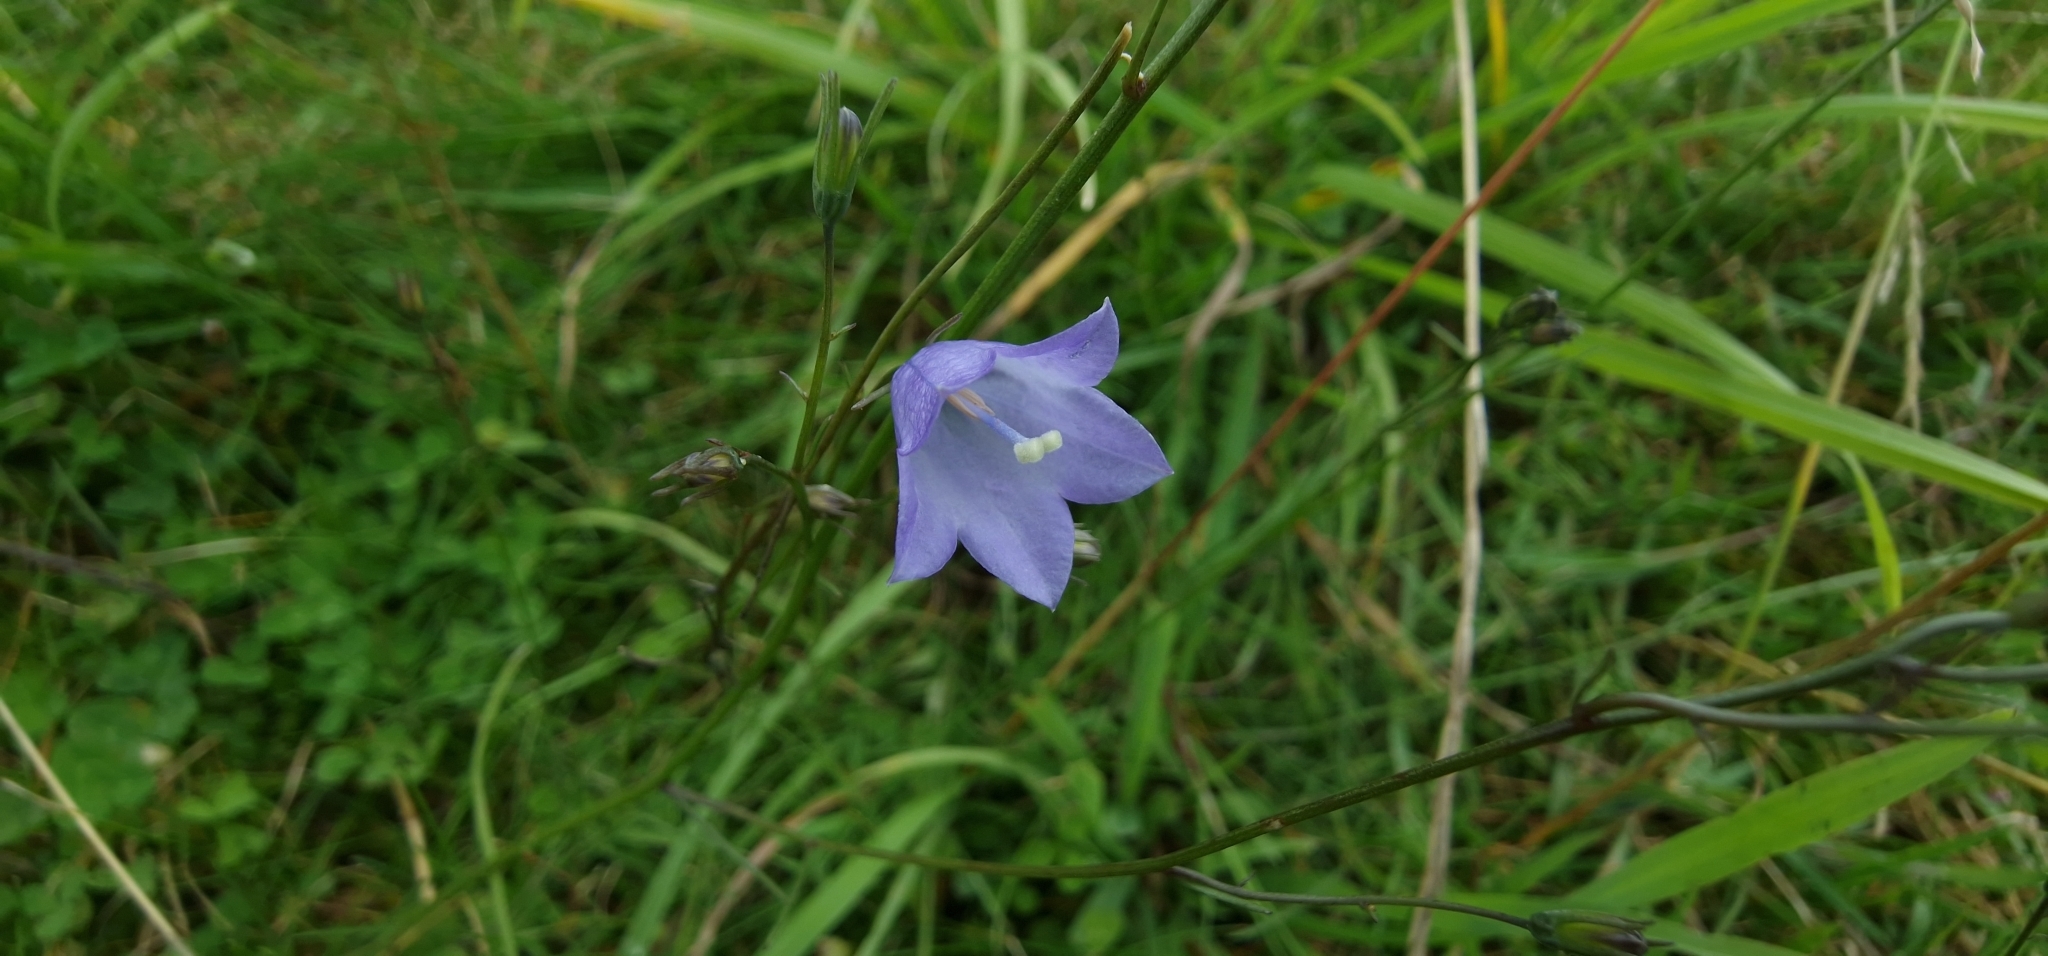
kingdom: Plantae
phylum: Tracheophyta
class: Magnoliopsida
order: Asterales
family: Campanulaceae
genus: Campanula
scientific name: Campanula rotundifolia
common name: Harebell
